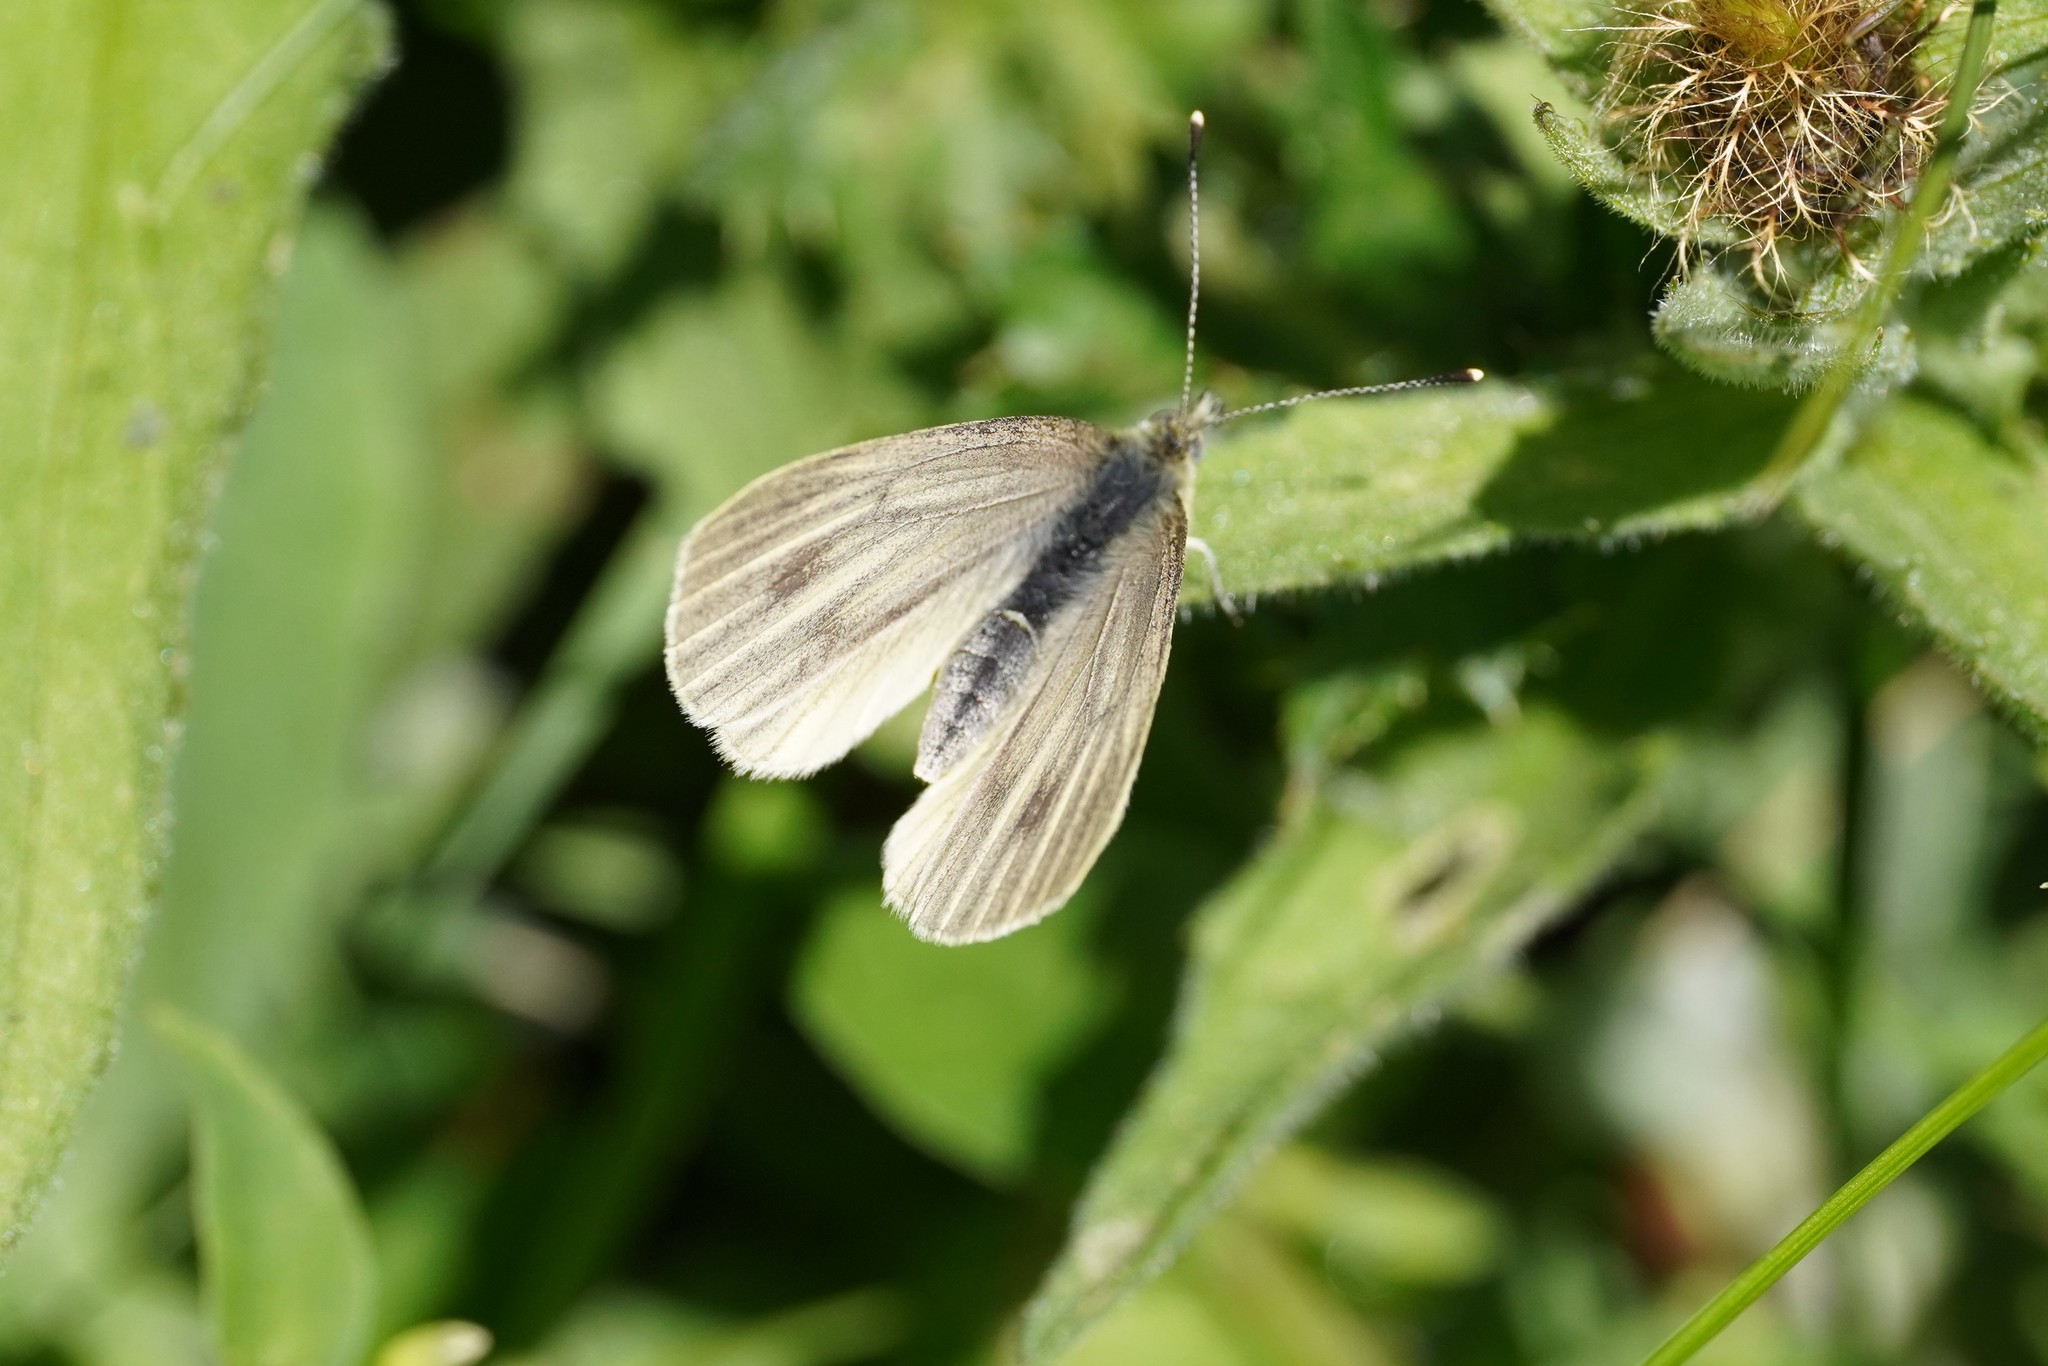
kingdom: Animalia
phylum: Arthropoda
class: Insecta
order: Lepidoptera
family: Pieridae
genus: Pieris
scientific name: Pieris bryoniae
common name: Mountain green-veined white
